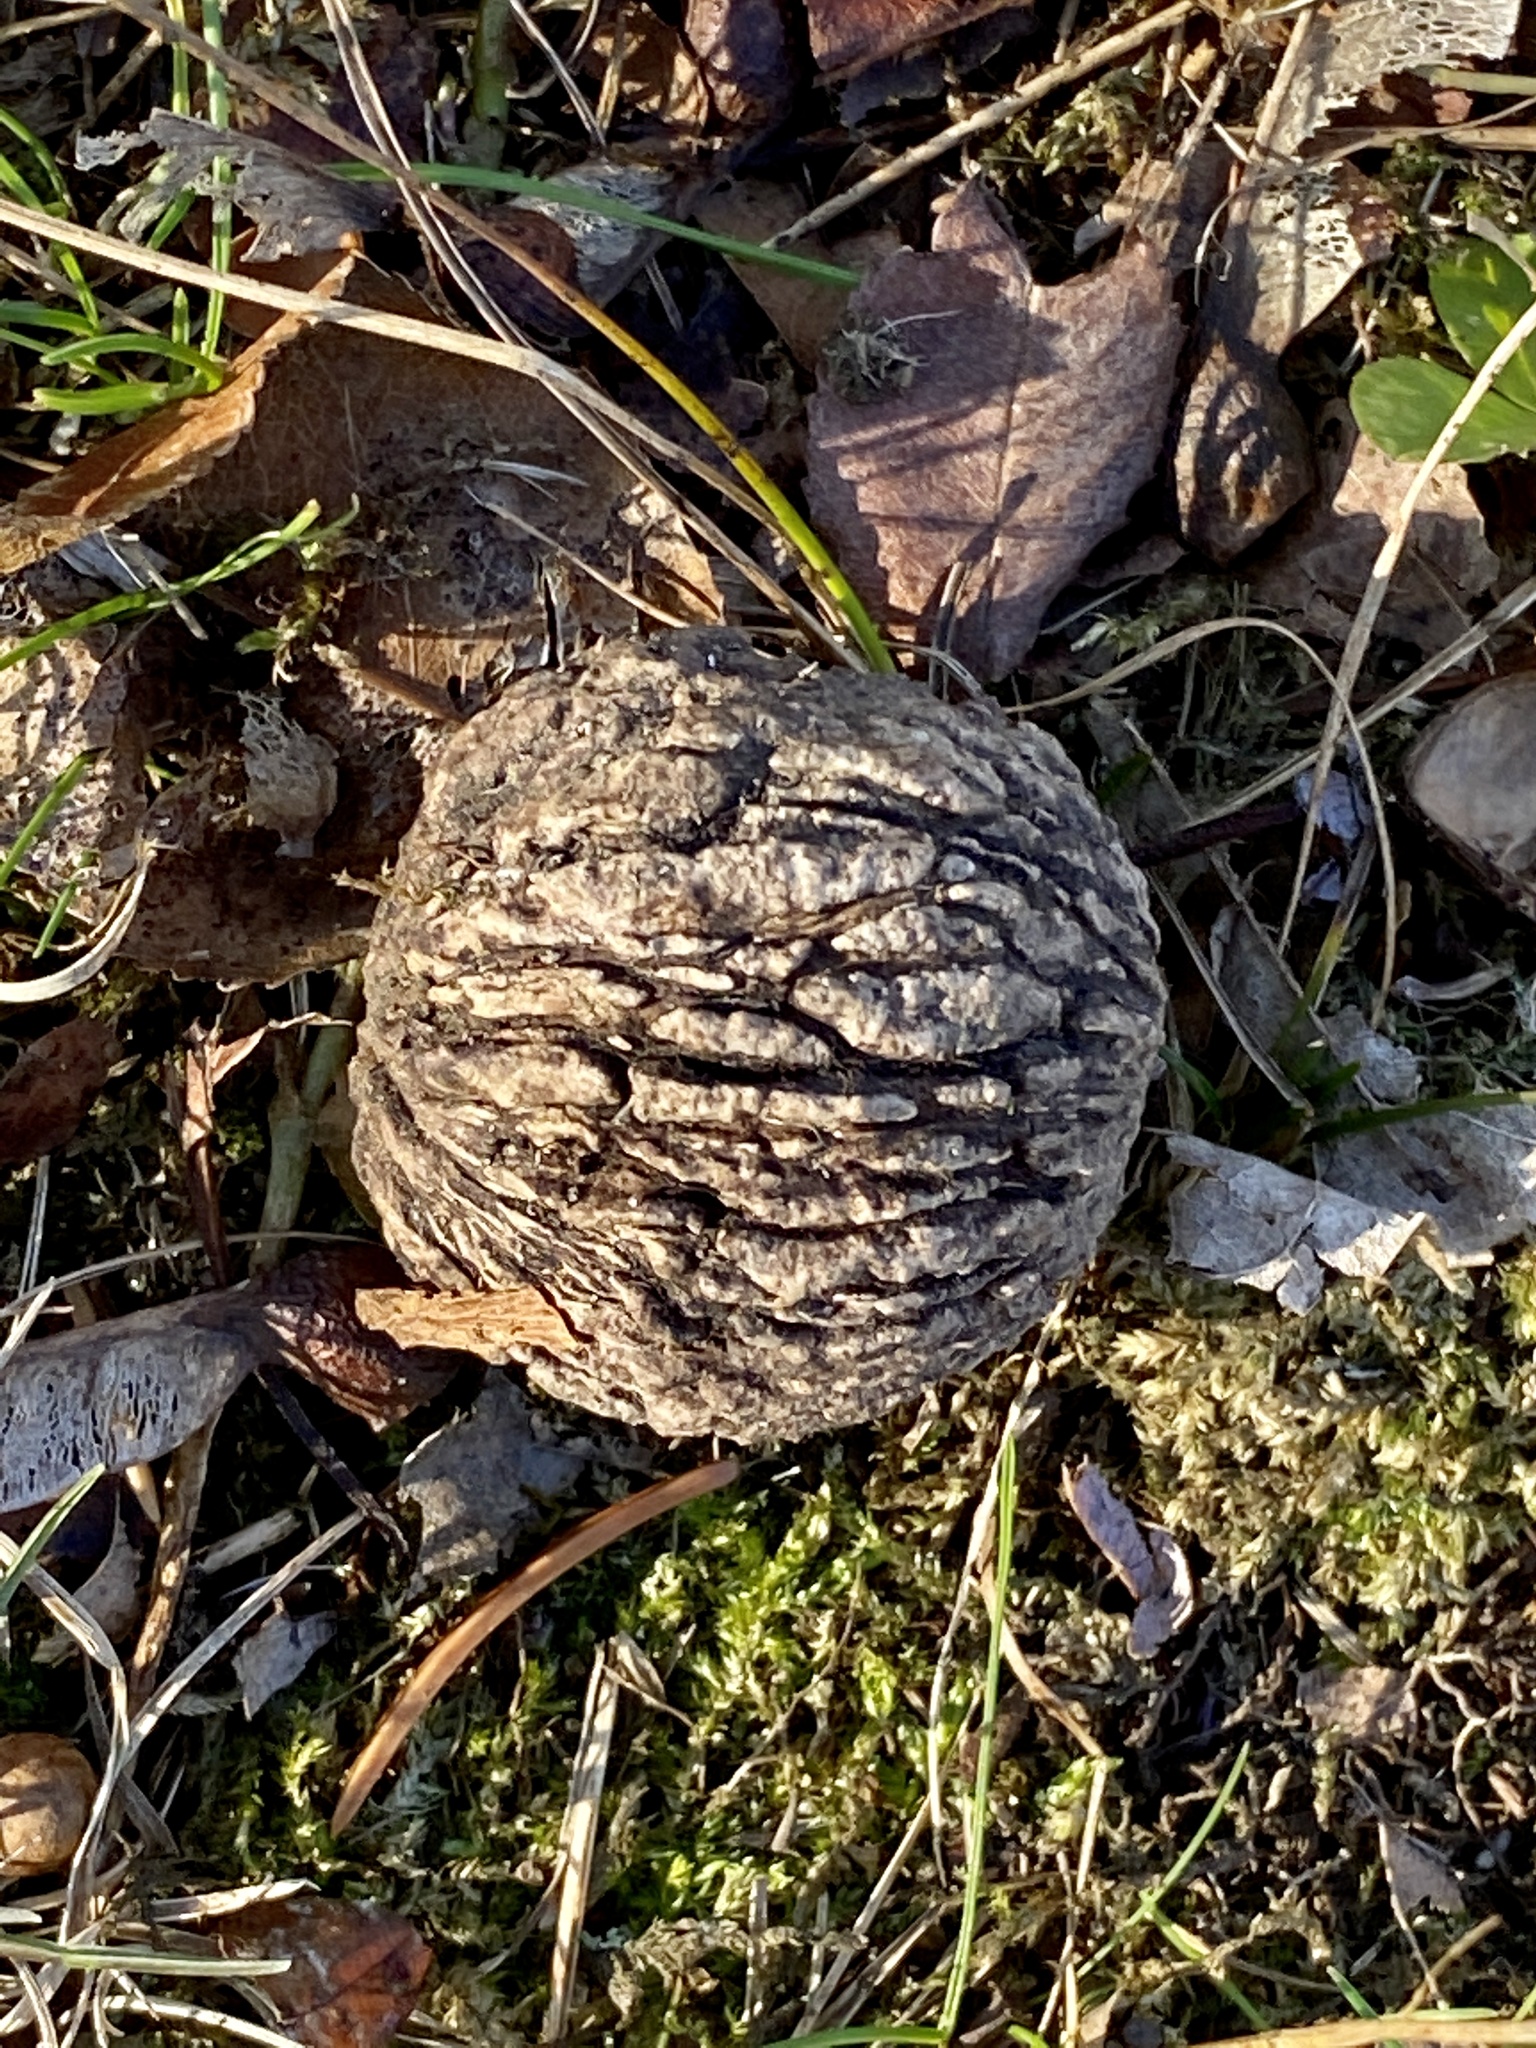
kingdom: Plantae
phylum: Tracheophyta
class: Magnoliopsida
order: Fagales
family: Juglandaceae
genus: Juglans
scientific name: Juglans nigra
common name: Black walnut
